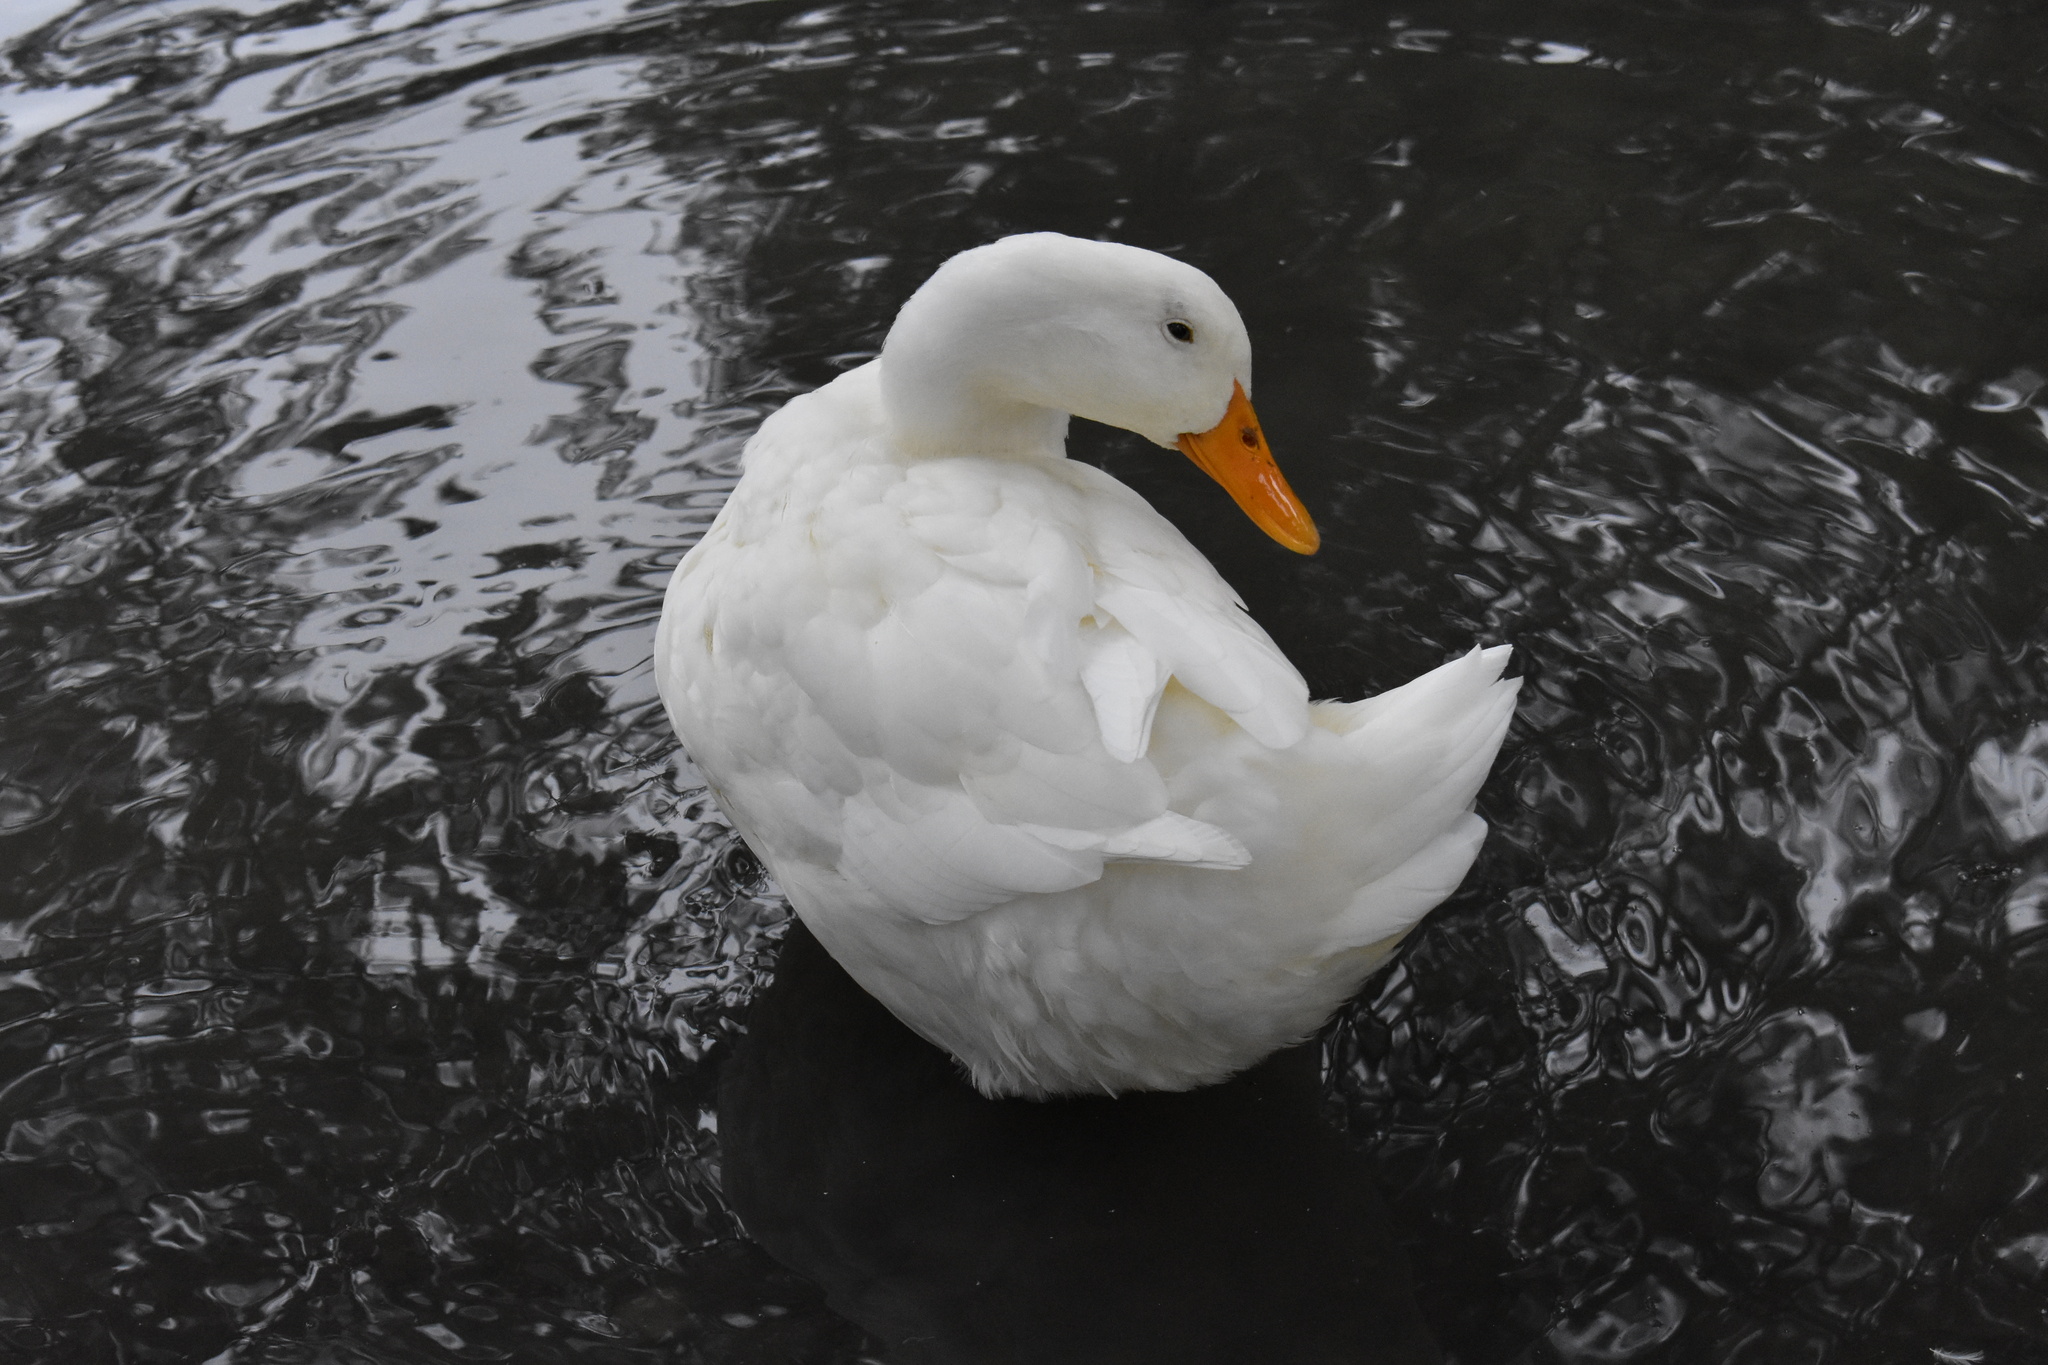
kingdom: Animalia
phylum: Chordata
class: Aves
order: Anseriformes
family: Anatidae
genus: Anas
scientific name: Anas platyrhynchos
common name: Mallard
